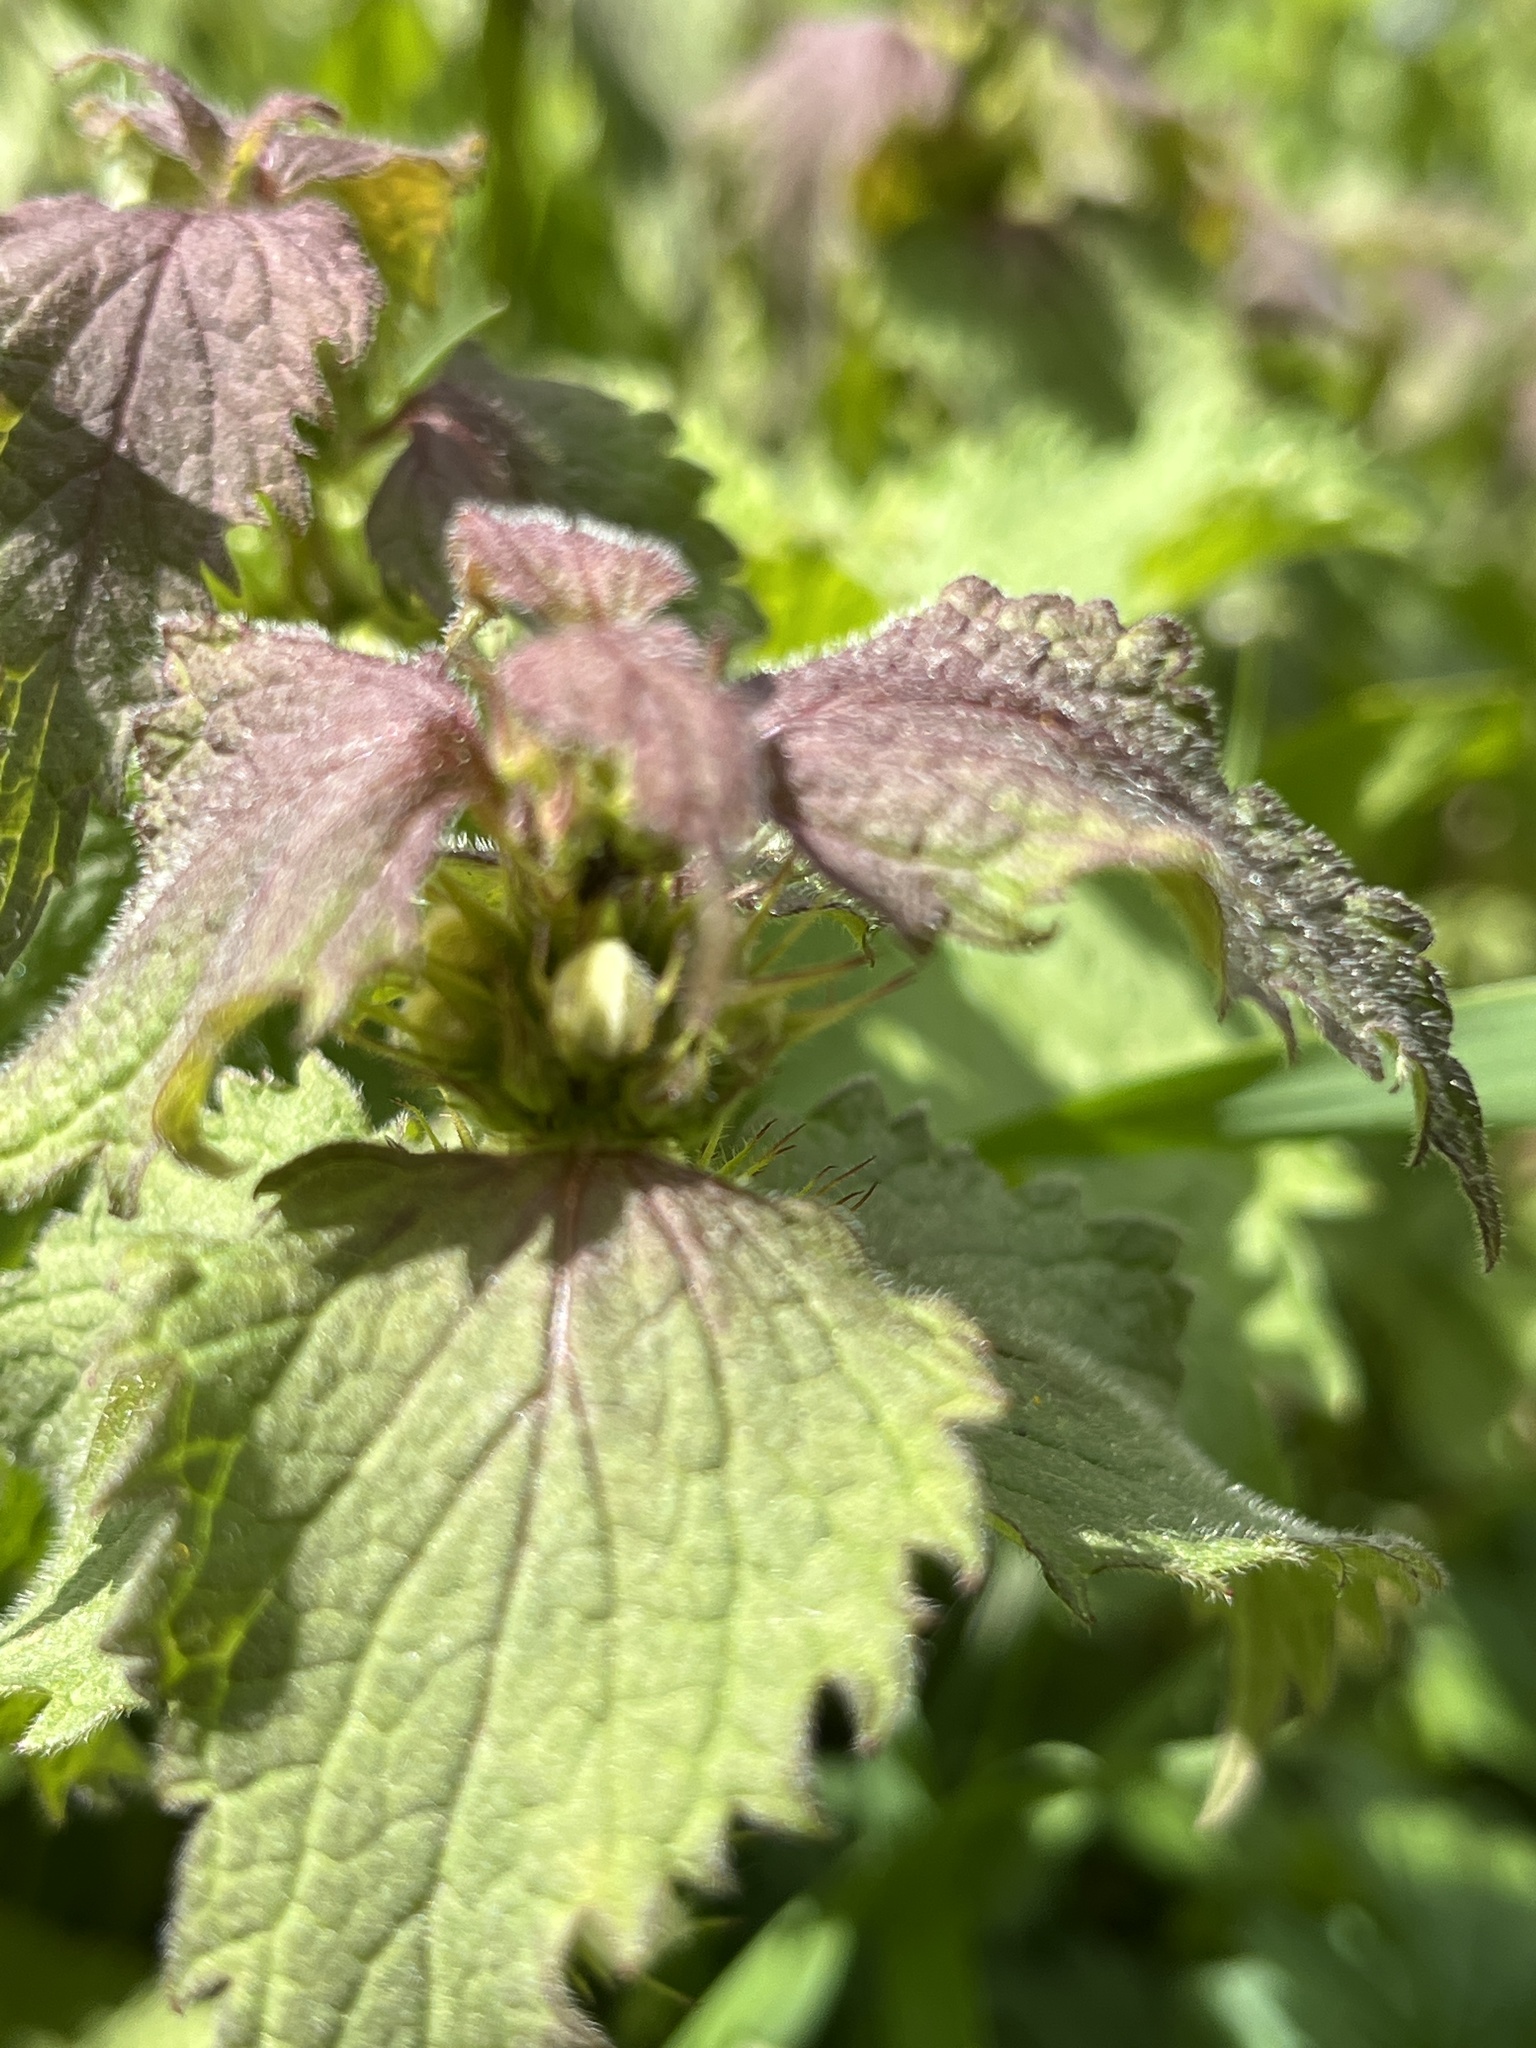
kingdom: Plantae
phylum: Tracheophyta
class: Magnoliopsida
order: Lamiales
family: Lamiaceae
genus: Lamium
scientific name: Lamium album
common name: White dead-nettle
